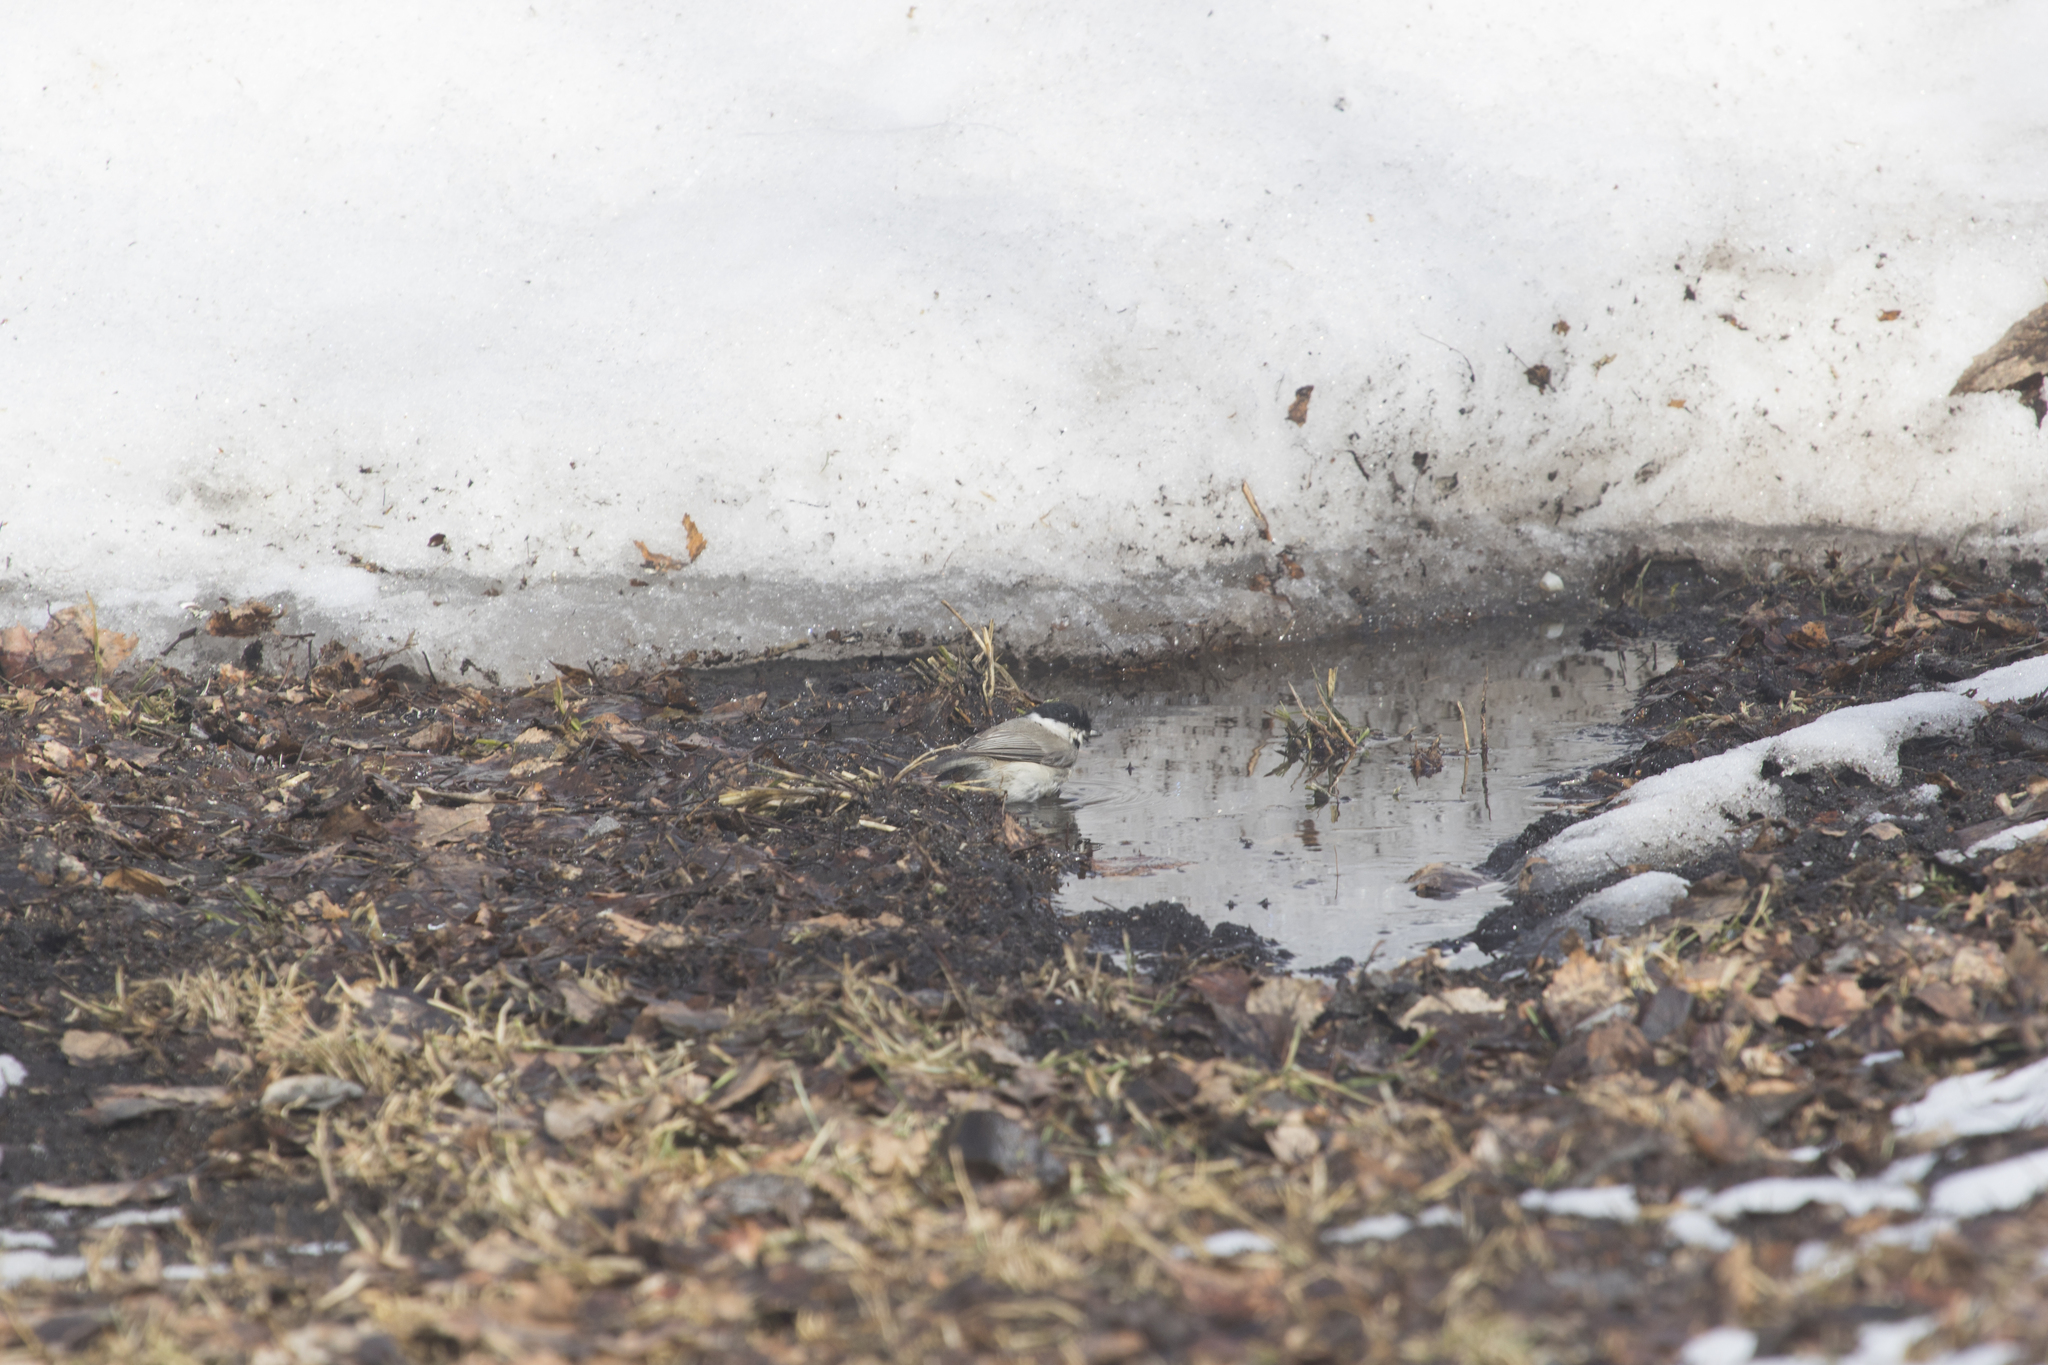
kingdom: Animalia
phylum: Chordata
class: Aves
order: Passeriformes
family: Paridae
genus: Poecile
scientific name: Poecile palustris
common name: Marsh tit
